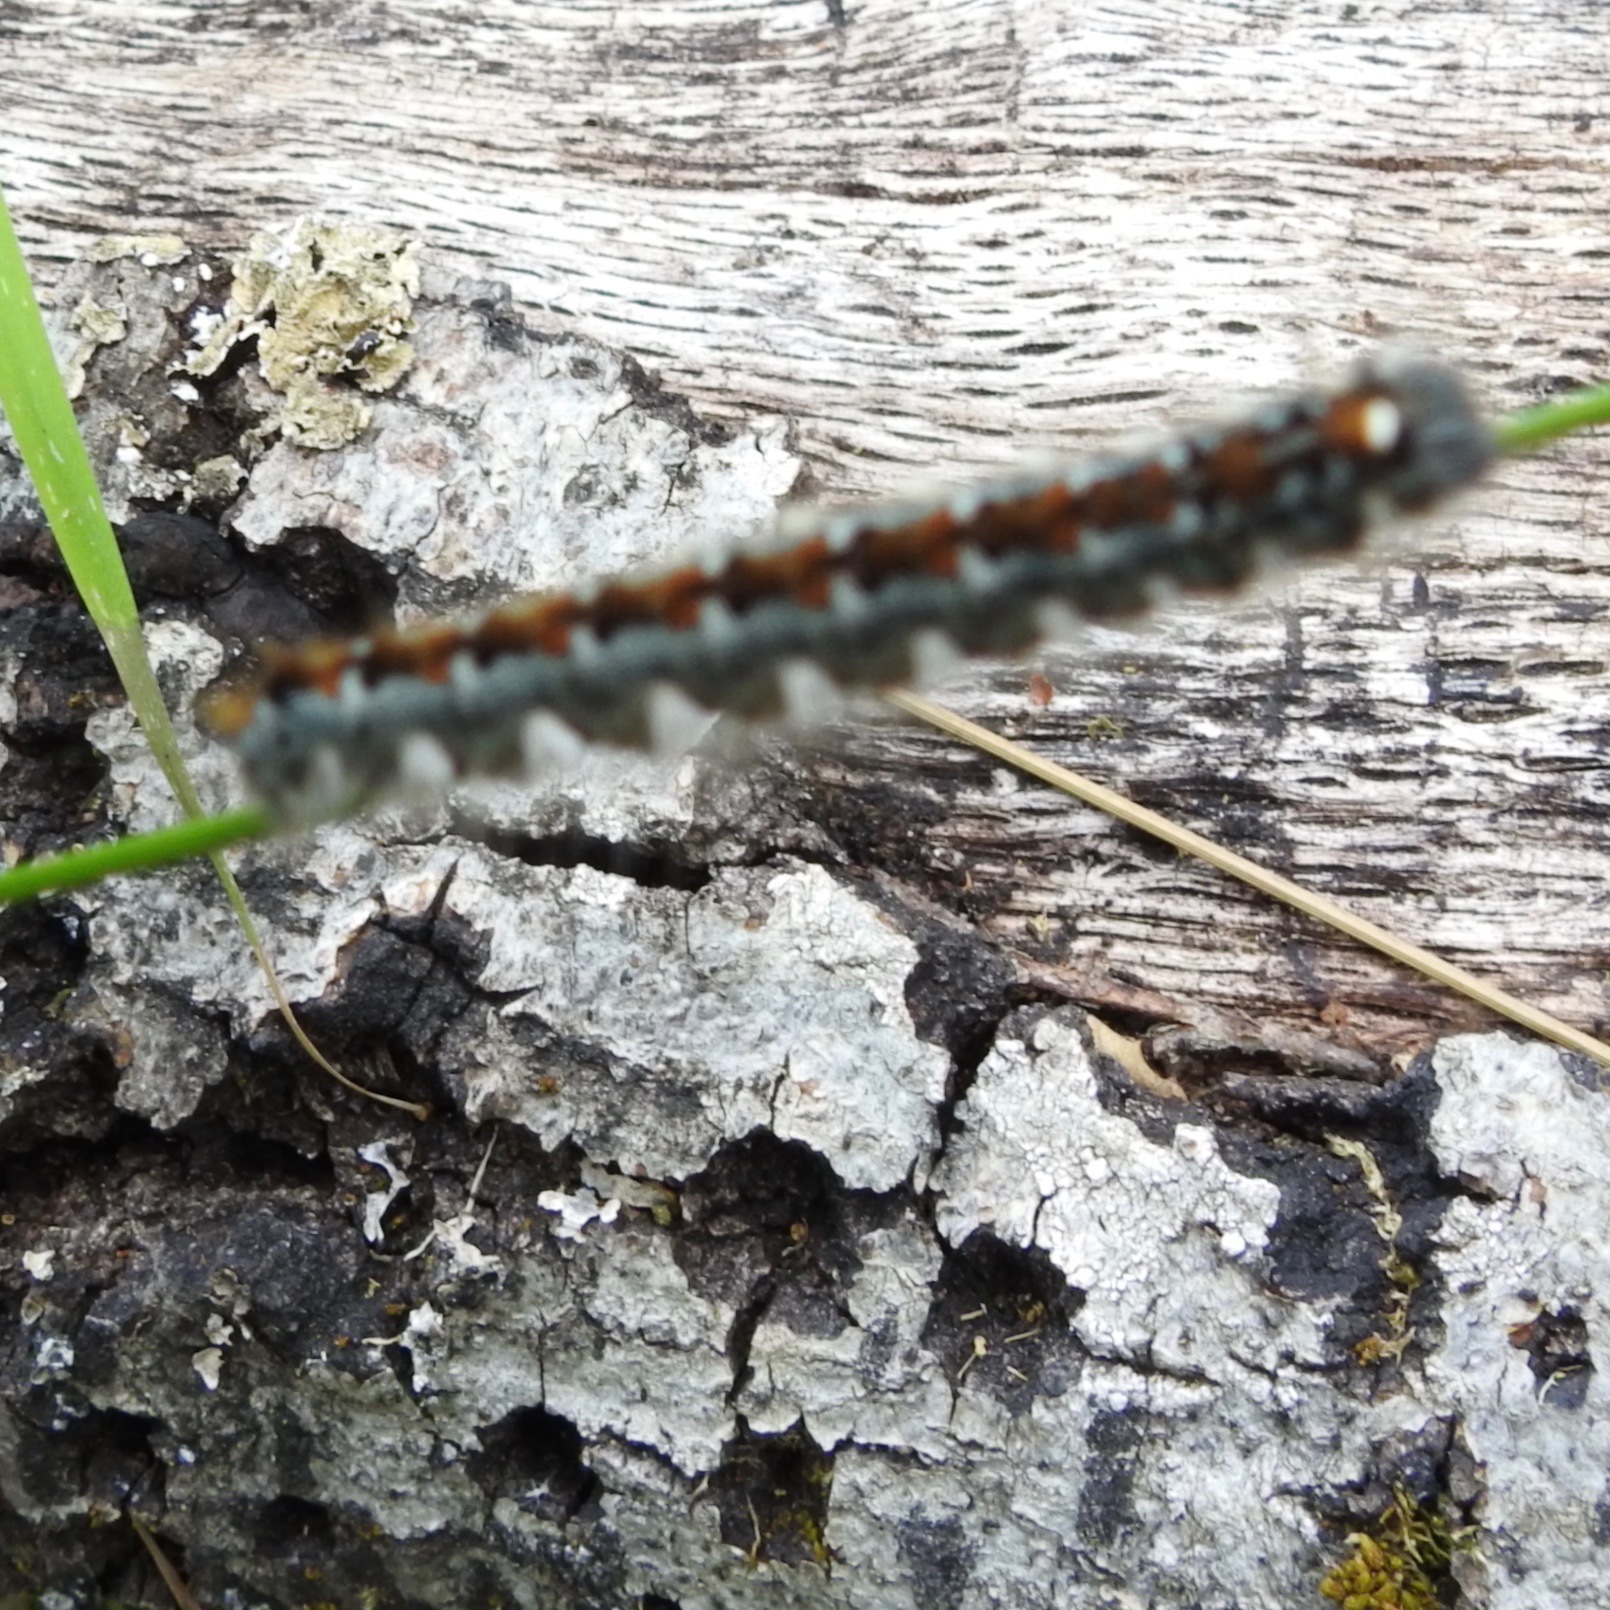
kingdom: Animalia
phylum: Arthropoda
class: Insecta
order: Lepidoptera
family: Lasiocampidae
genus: Malacosoma
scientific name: Malacosoma constricta
